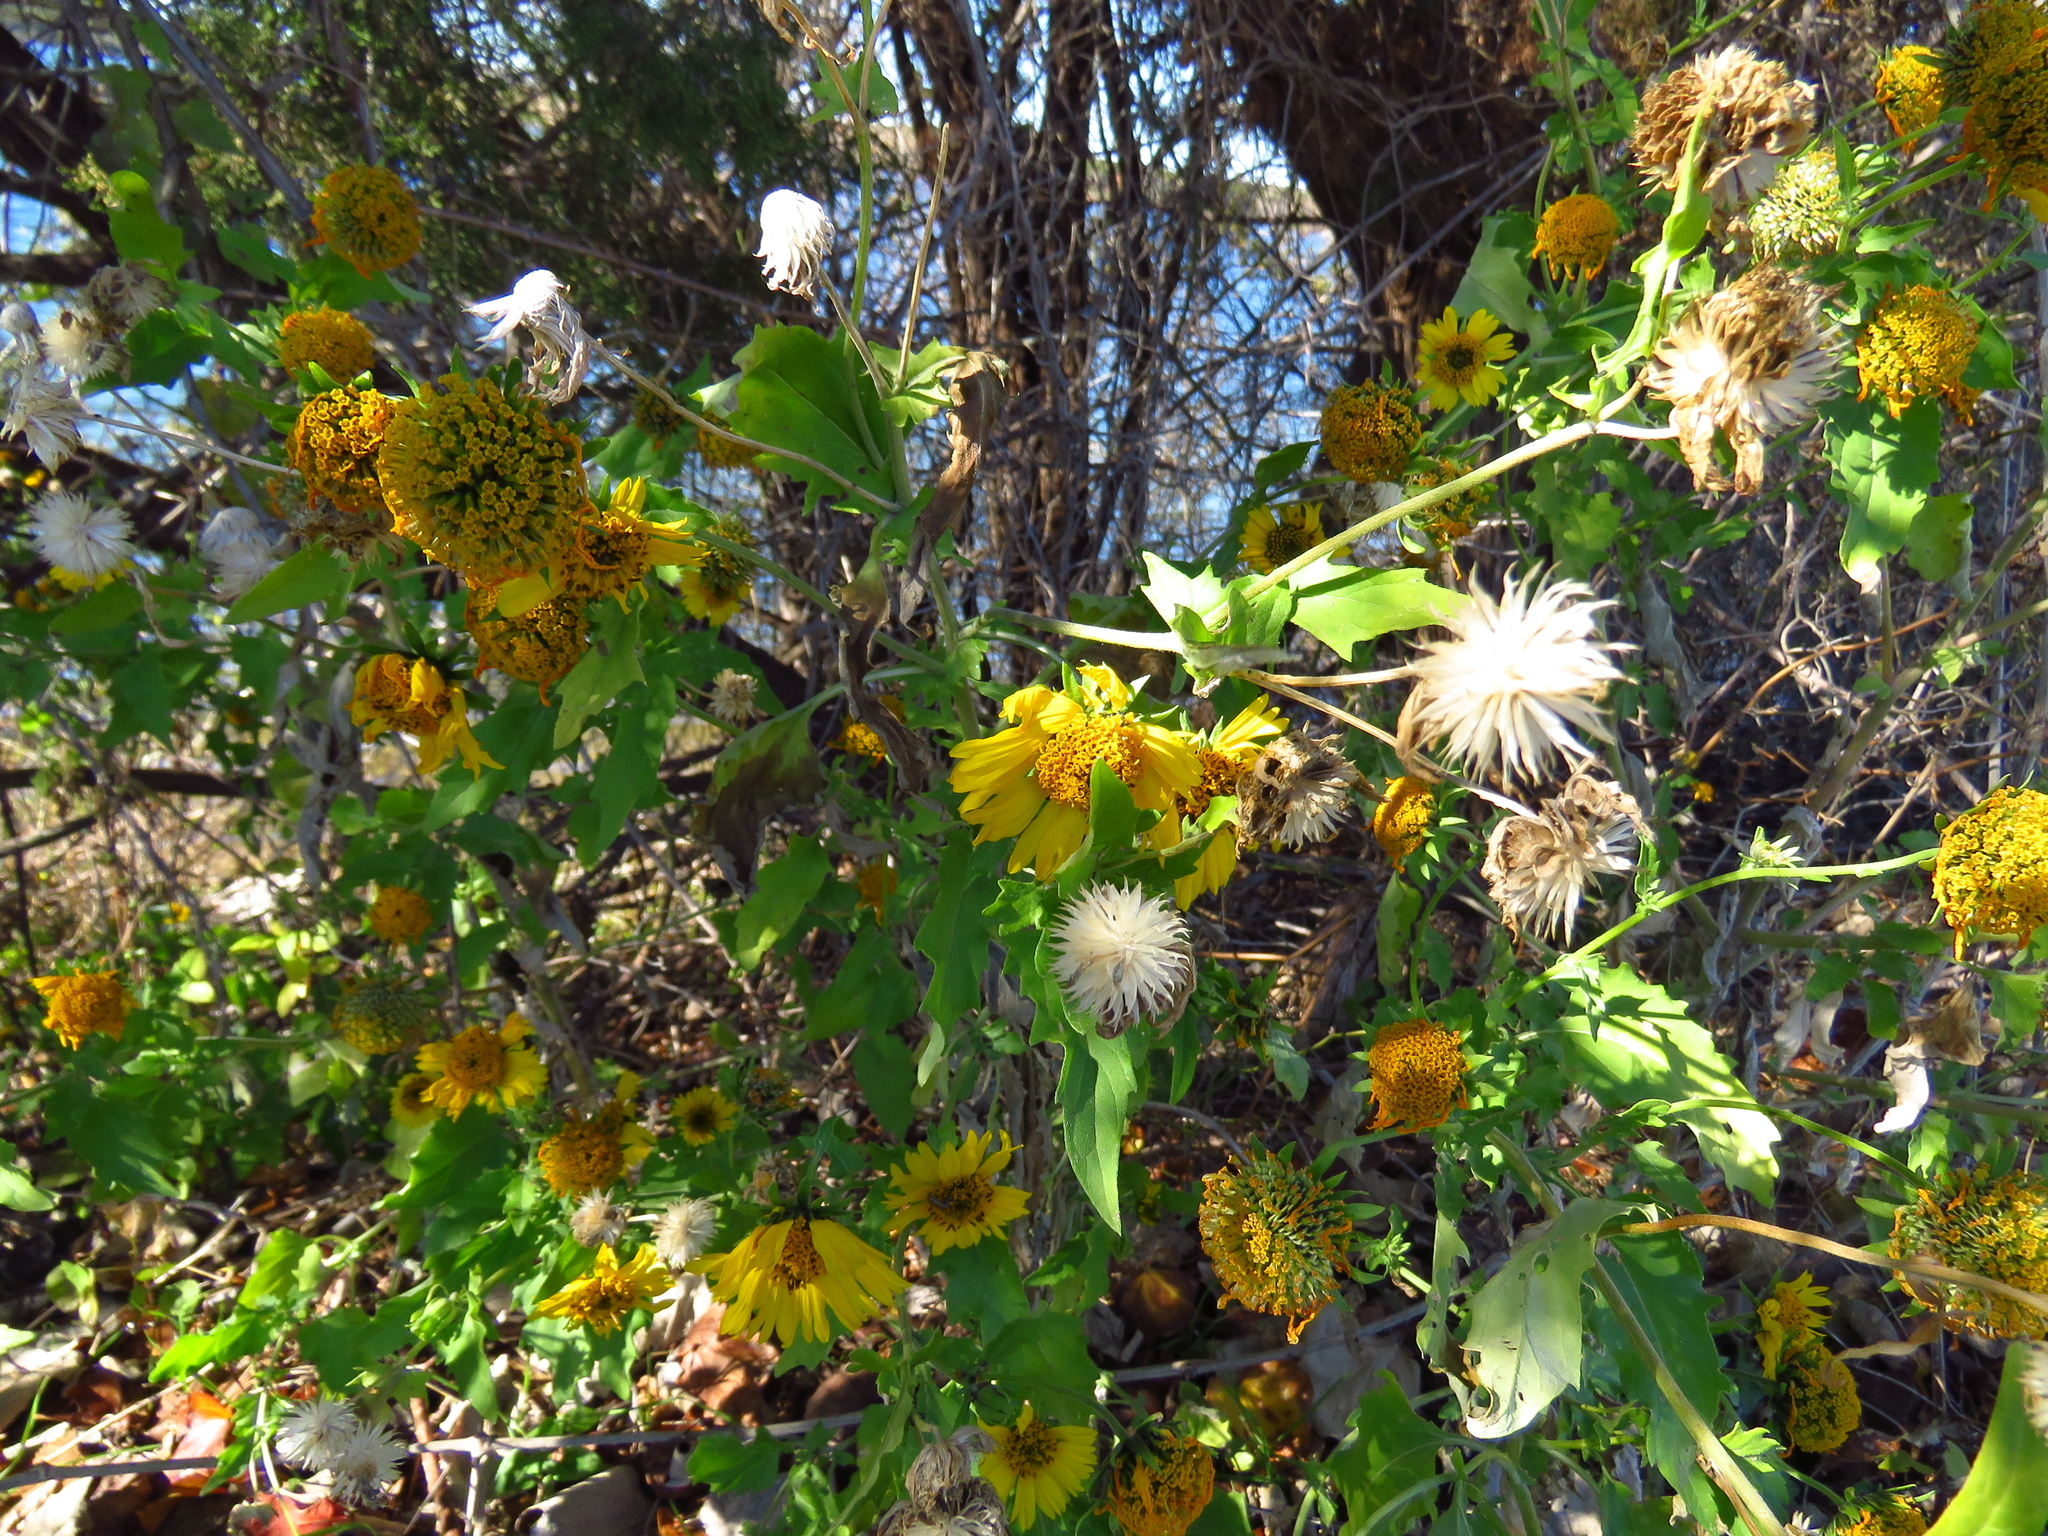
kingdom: Plantae
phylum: Tracheophyta
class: Magnoliopsida
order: Asterales
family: Asteraceae
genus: Verbesina
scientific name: Verbesina encelioides
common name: Golden crownbeard
